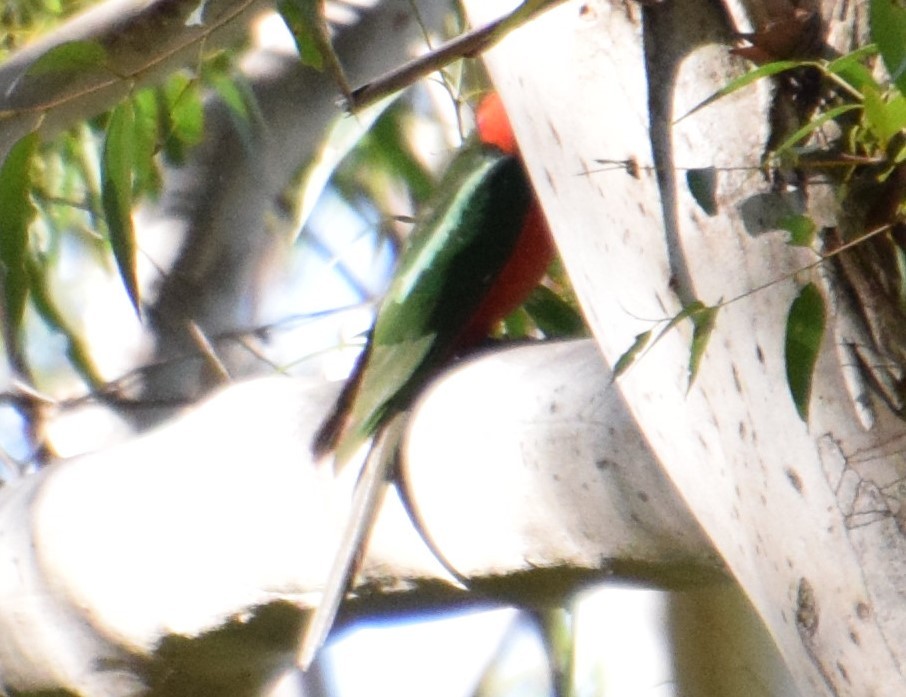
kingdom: Animalia
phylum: Chordata
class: Aves
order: Psittaciformes
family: Psittacidae
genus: Alisterus
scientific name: Alisterus scapularis
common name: Australian king parrot
